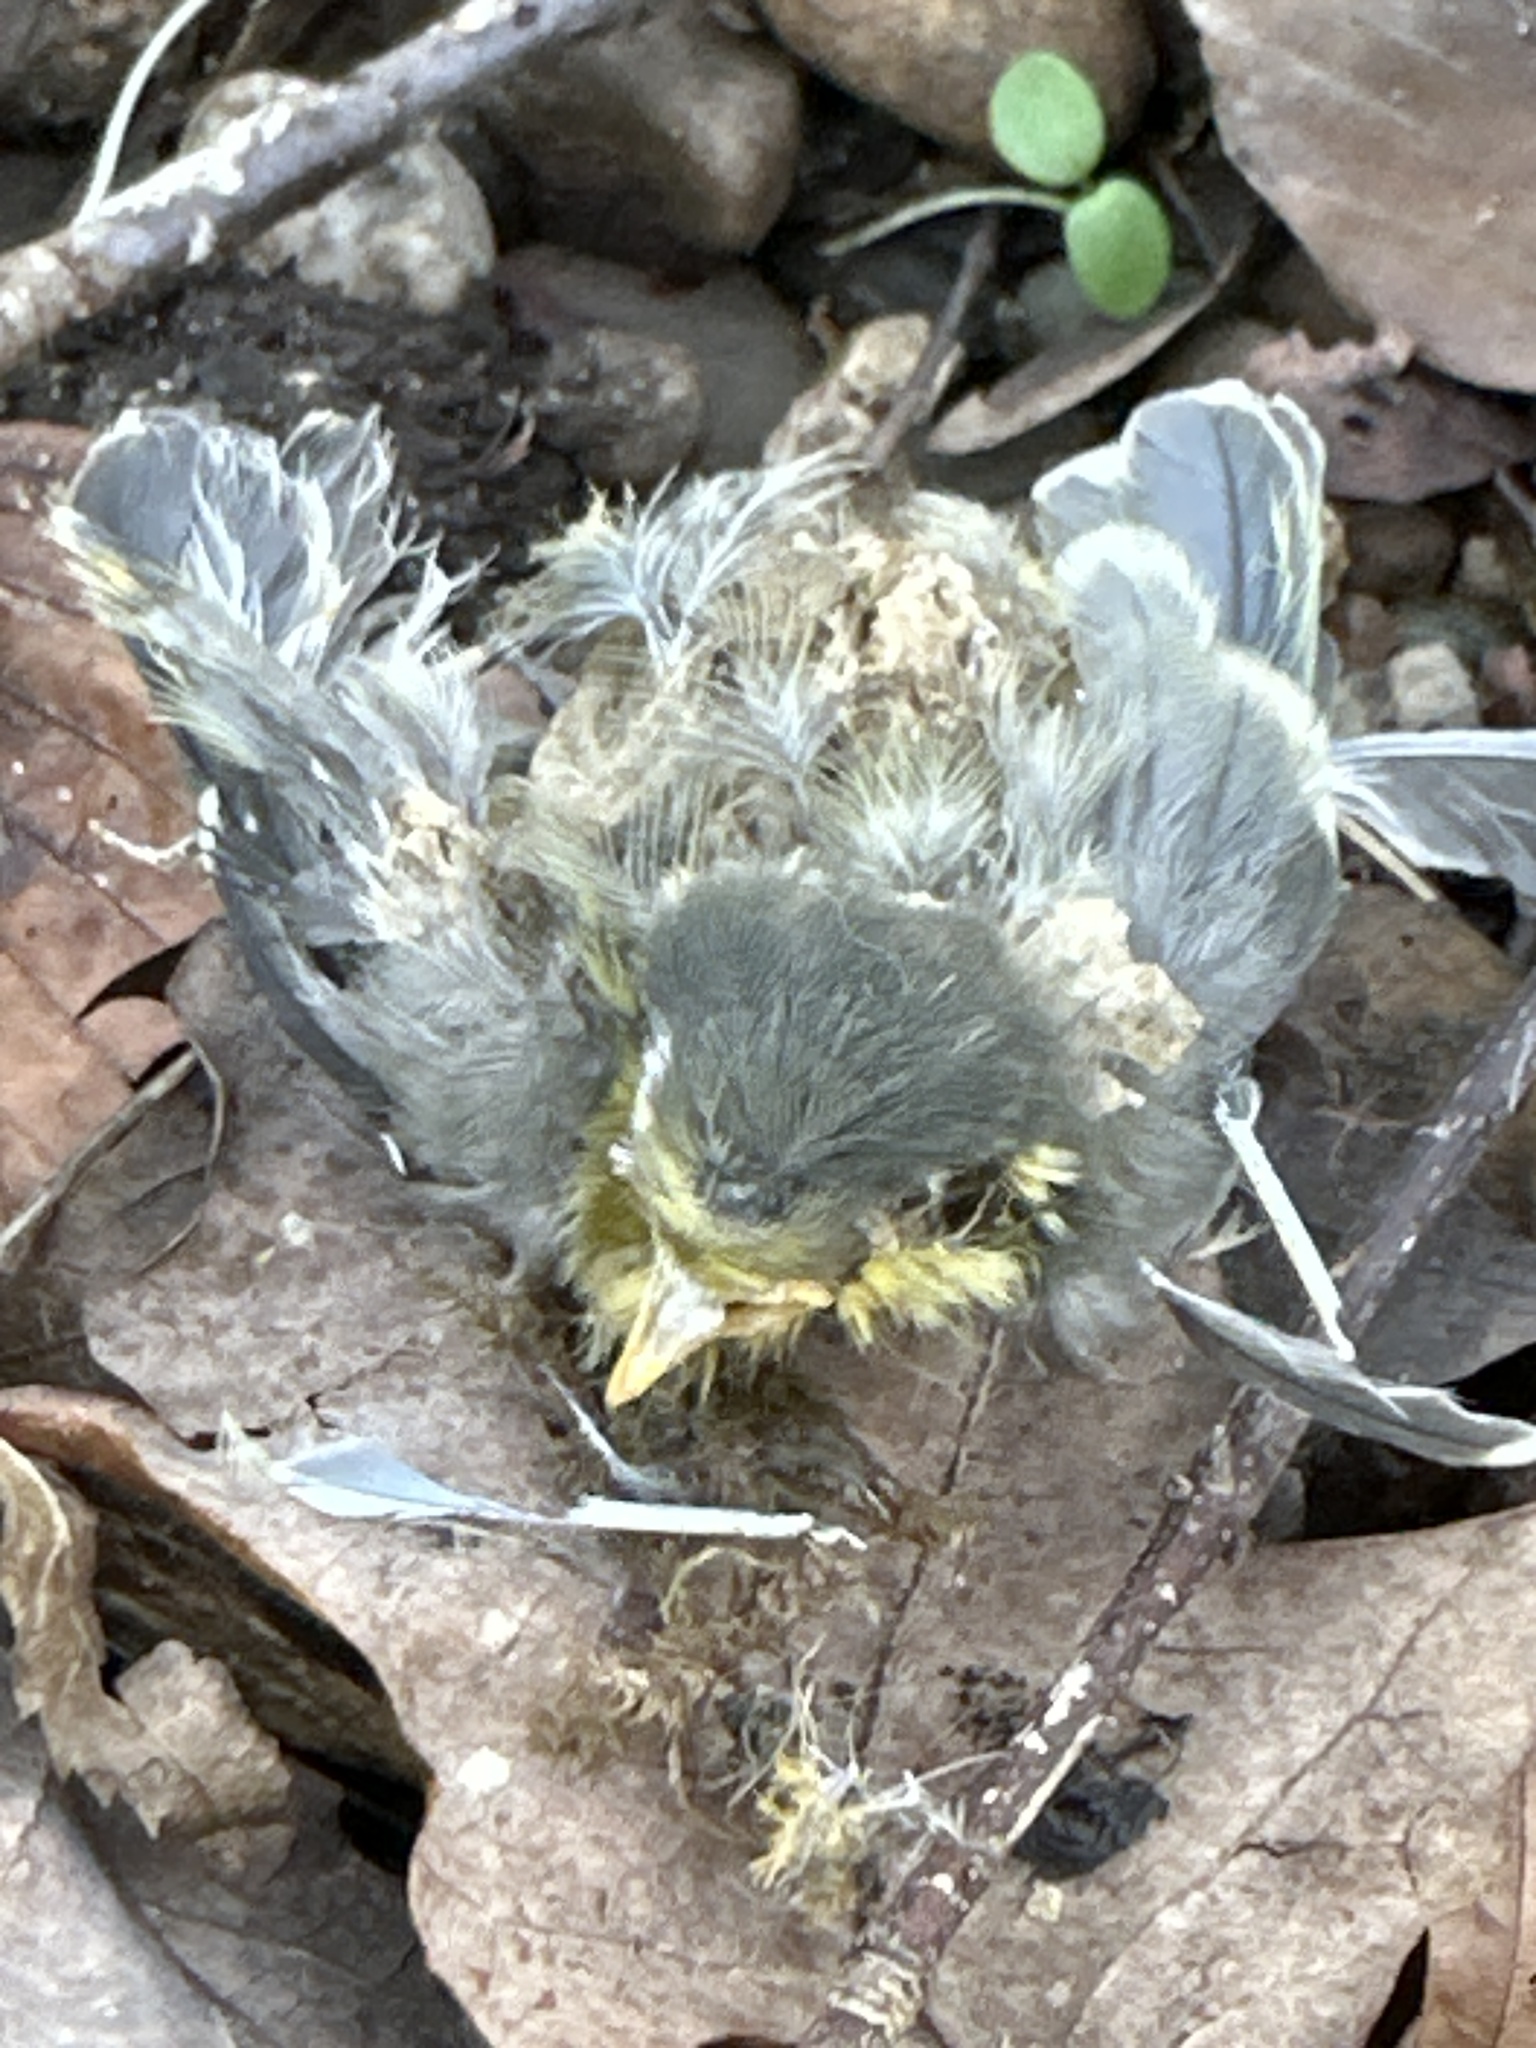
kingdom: Animalia
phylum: Chordata
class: Aves
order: Passeriformes
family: Paridae
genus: Cyanistes
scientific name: Cyanistes caeruleus
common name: Eurasian blue tit
